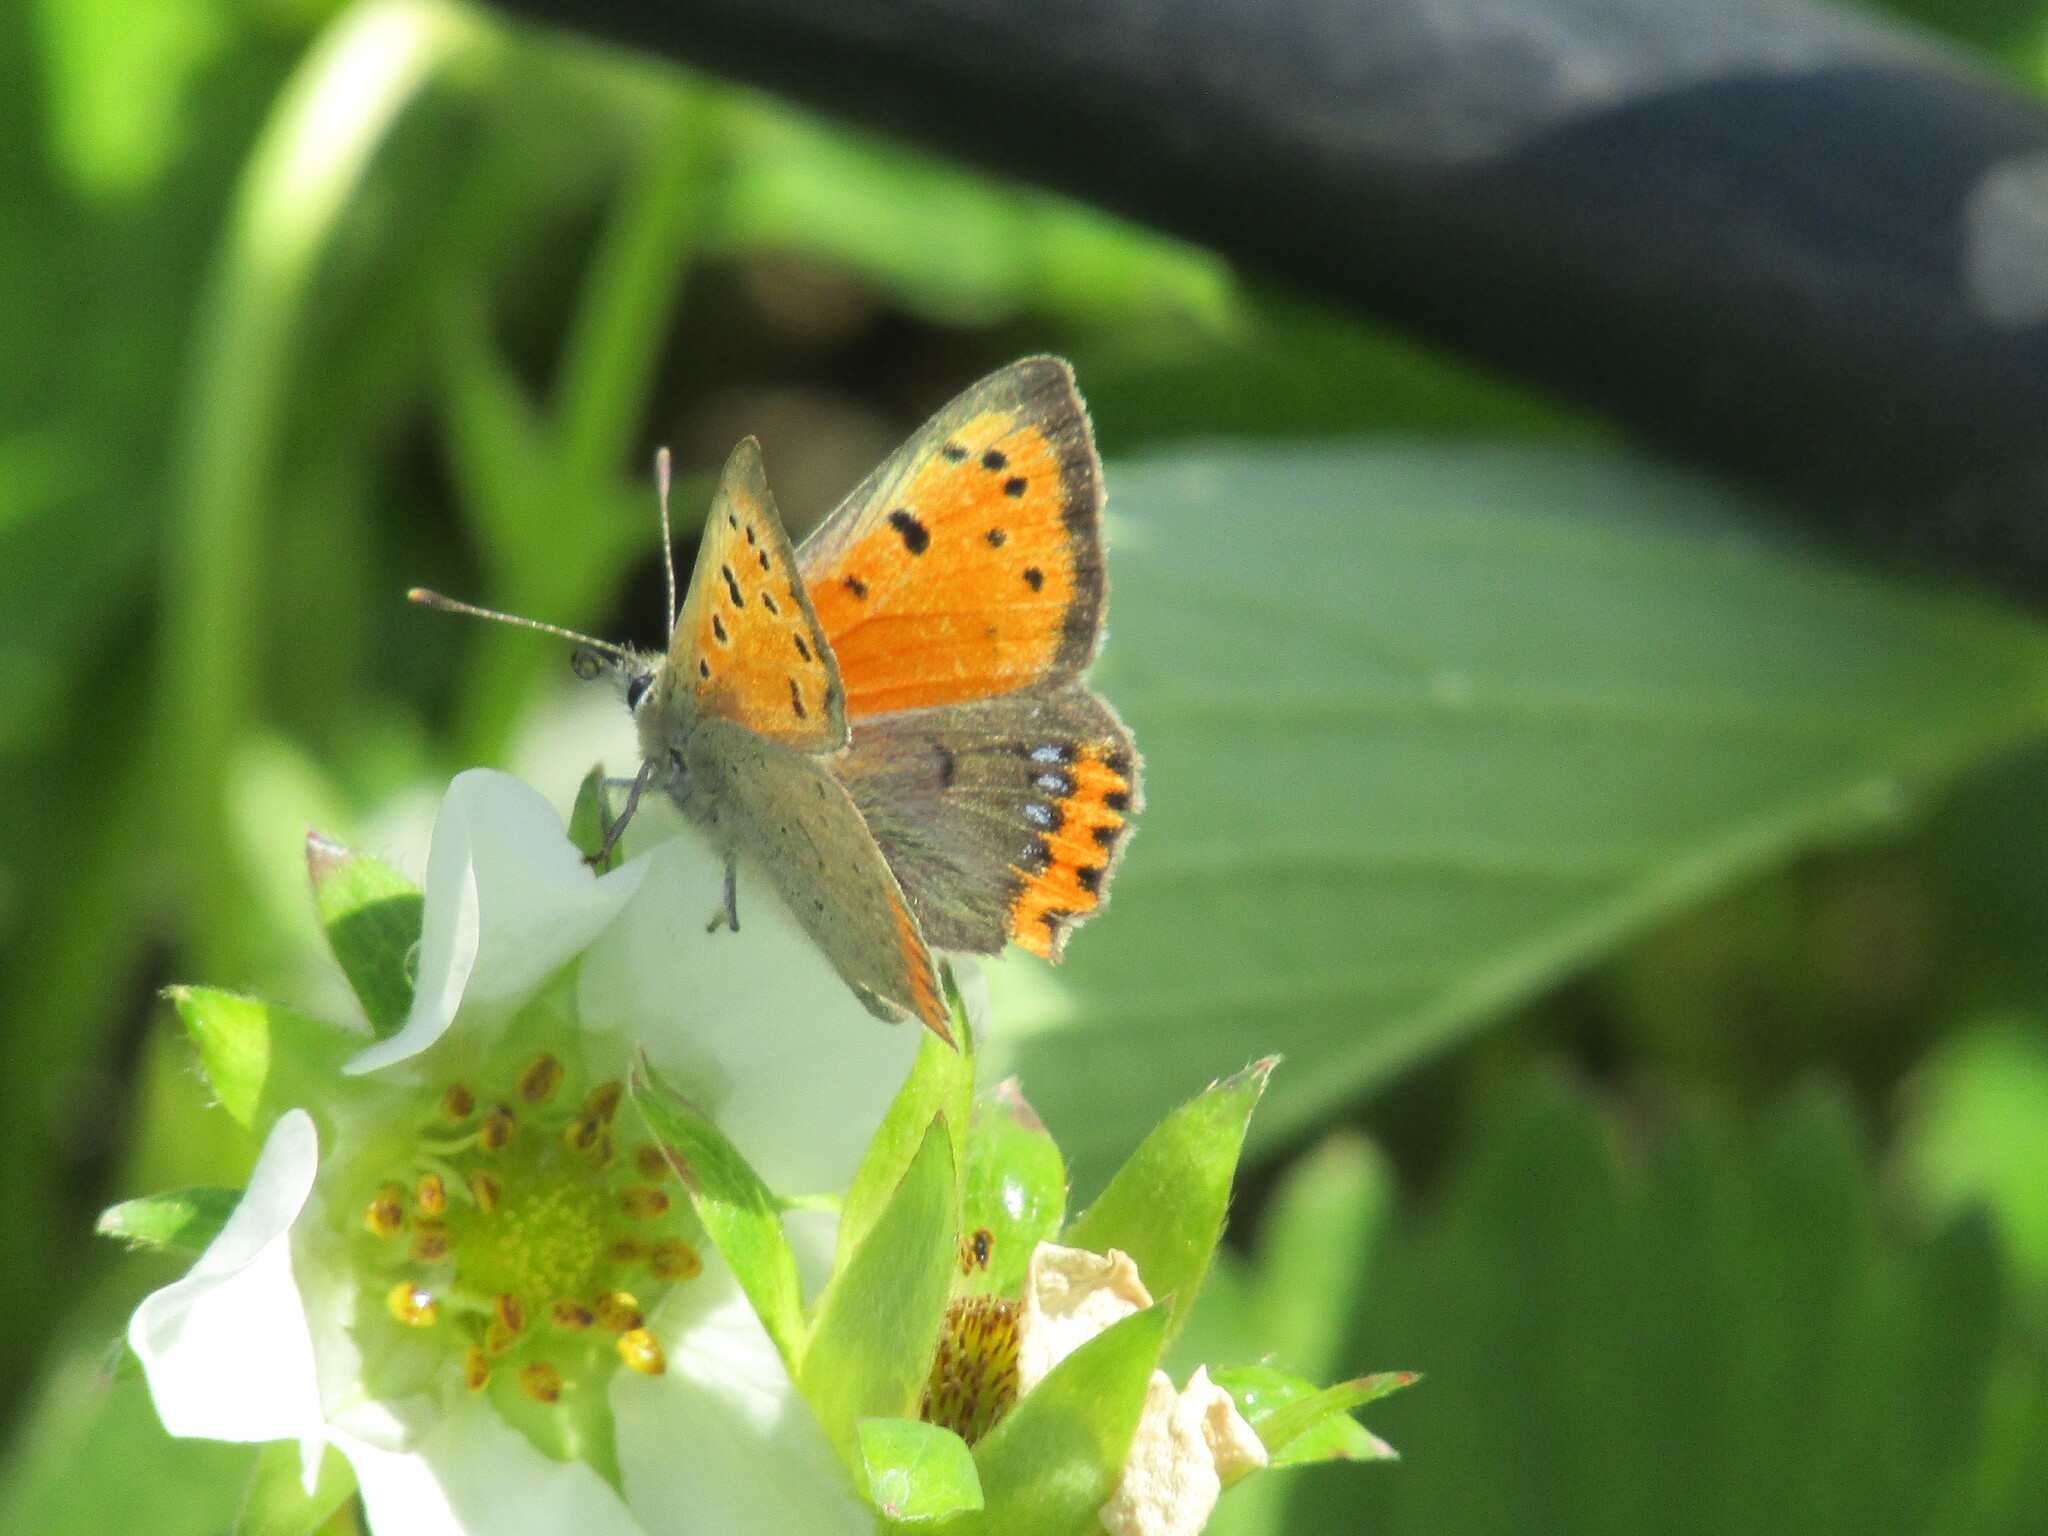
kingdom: Animalia
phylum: Arthropoda
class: Insecta
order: Lepidoptera
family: Lycaenidae
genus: Lycaena
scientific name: Lycaena phlaeas
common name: Small copper
